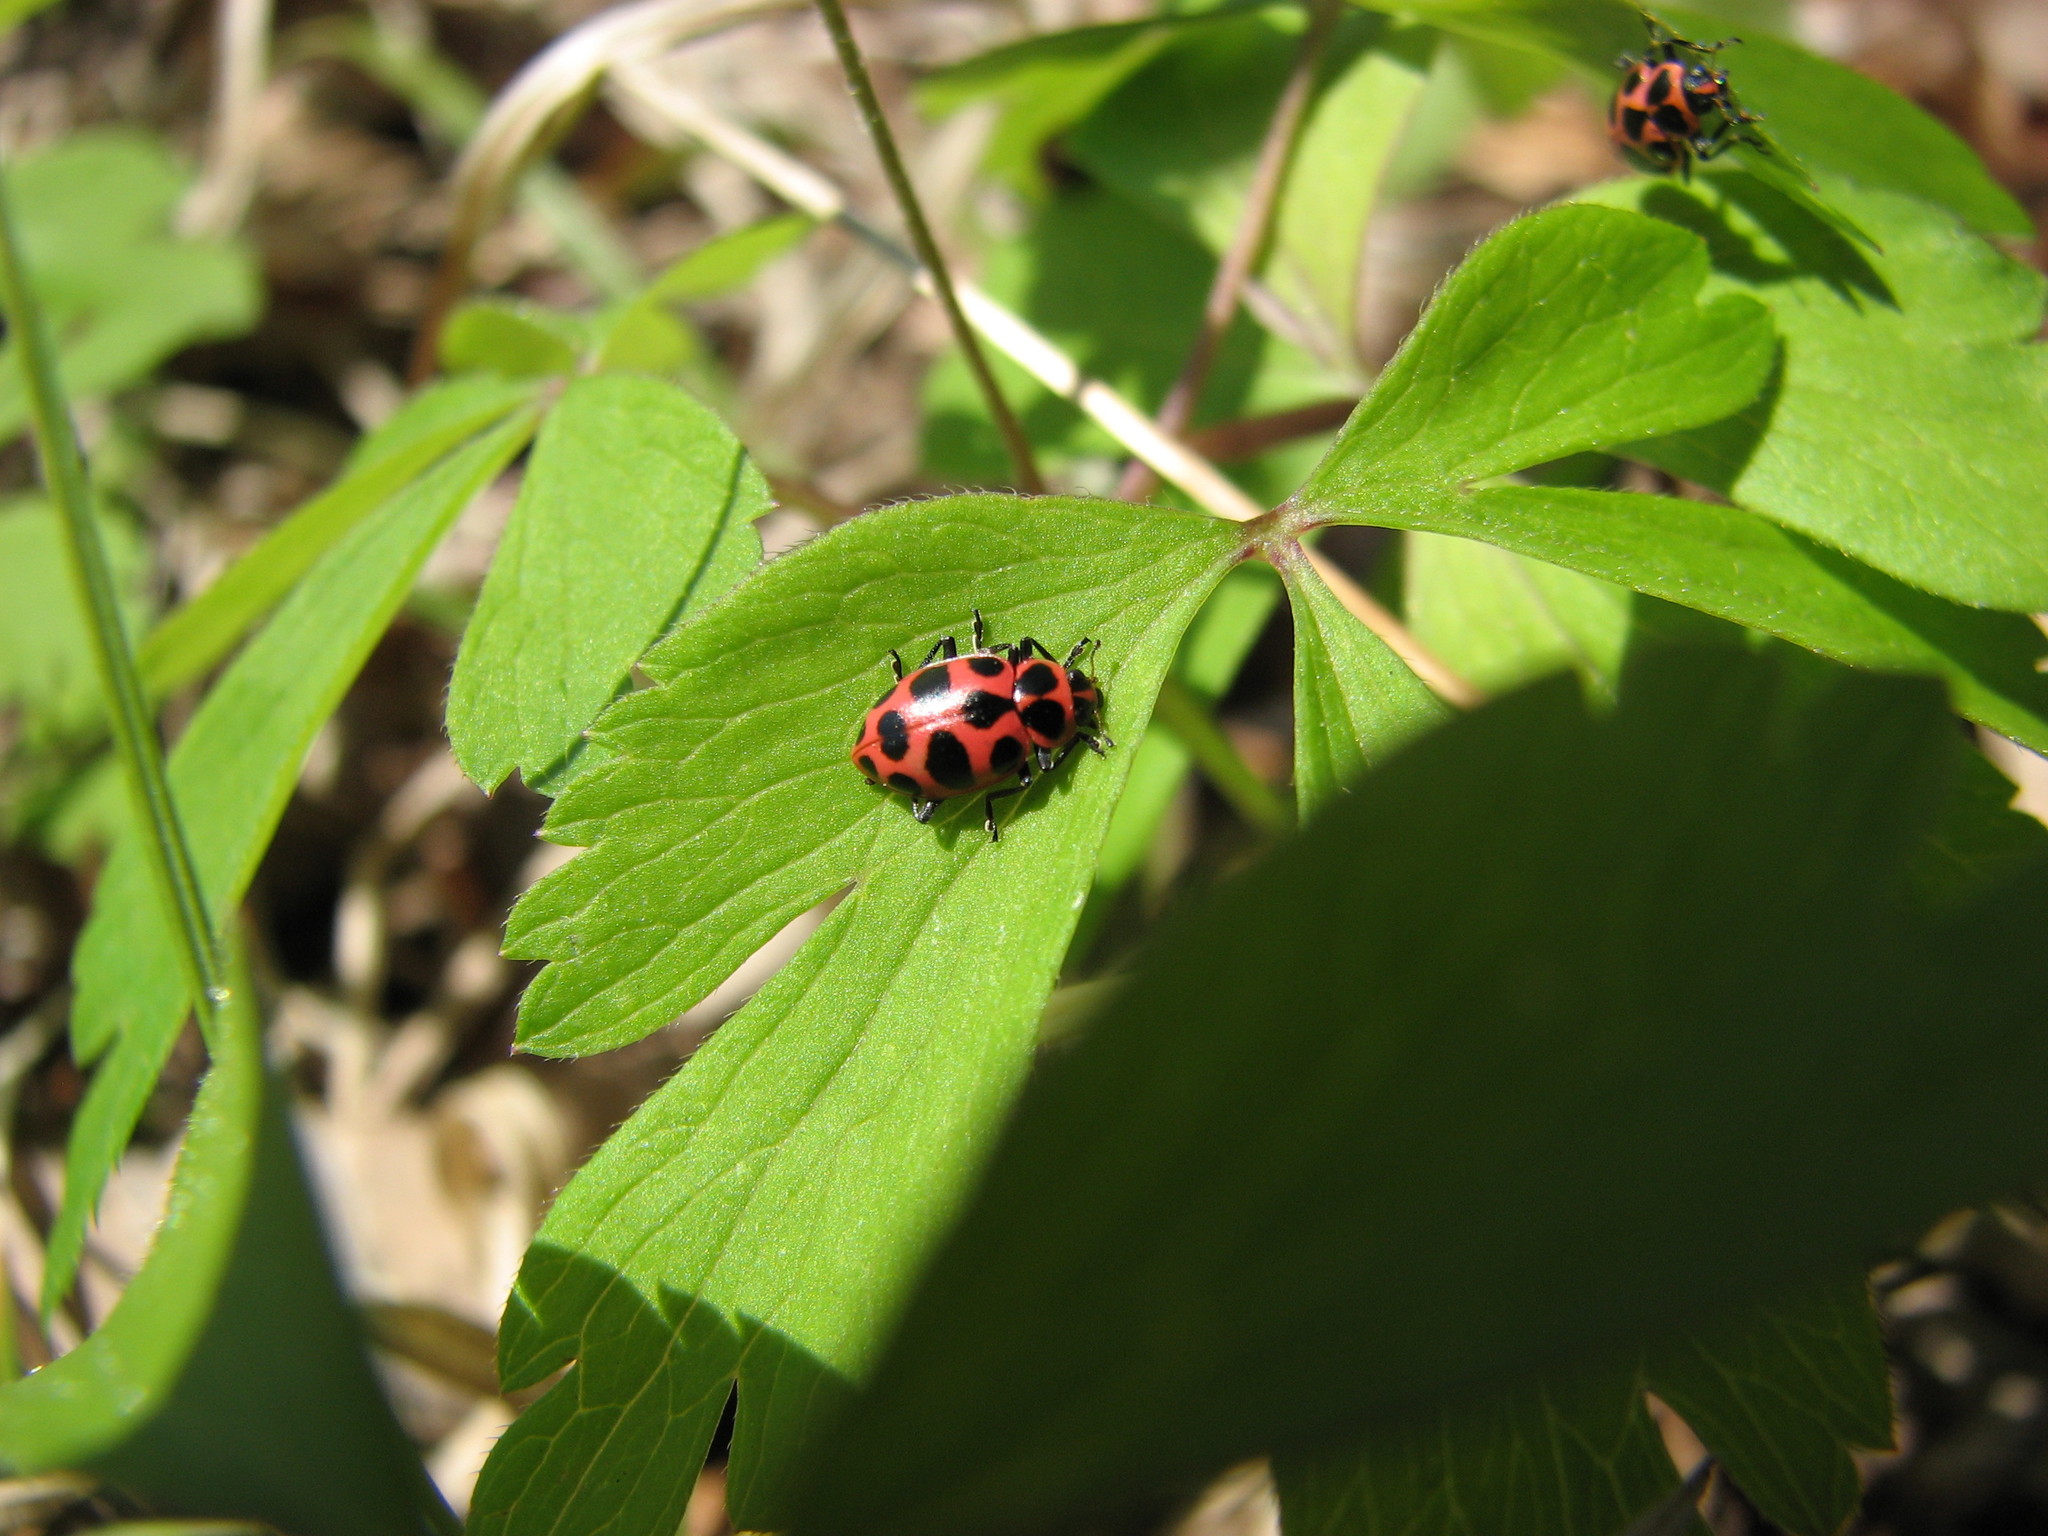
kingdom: Animalia
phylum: Arthropoda
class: Insecta
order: Coleoptera
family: Coccinellidae
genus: Coleomegilla
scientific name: Coleomegilla maculata
